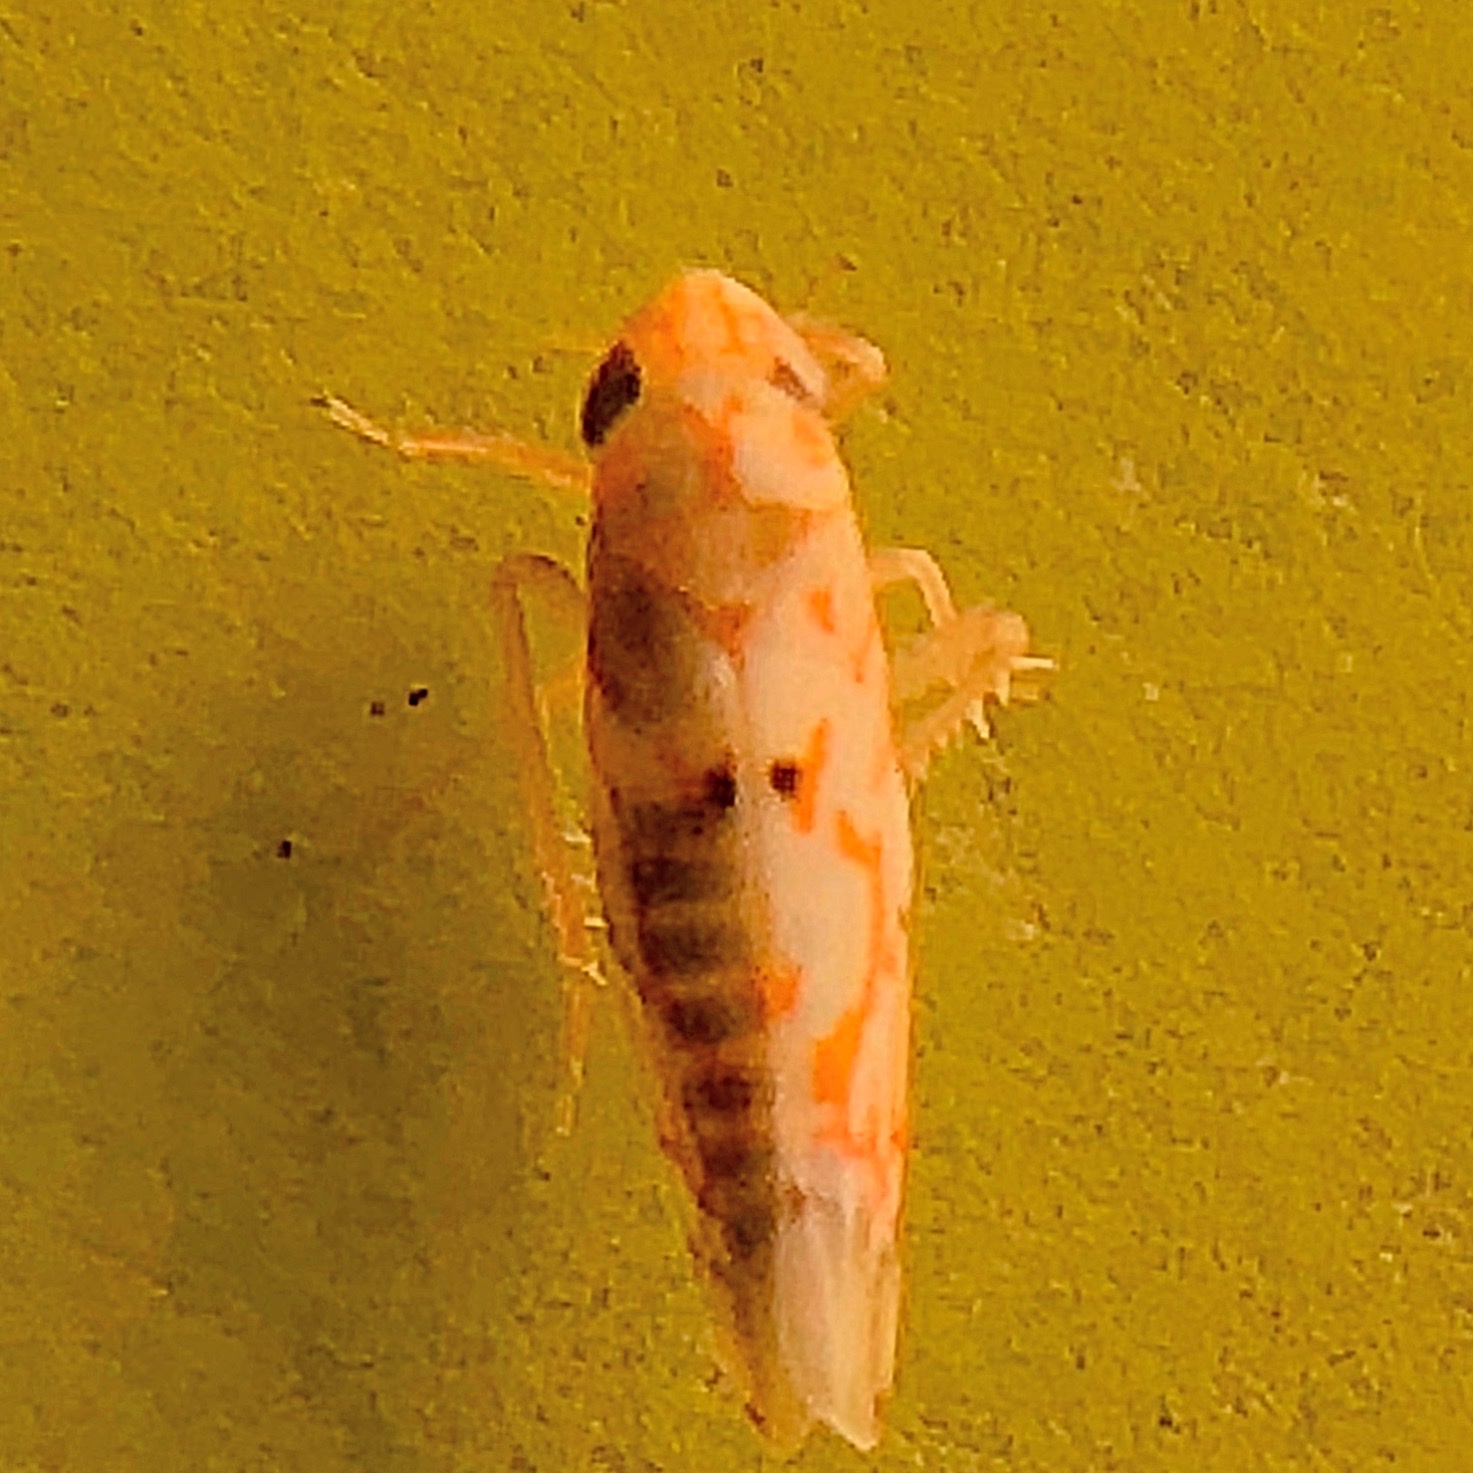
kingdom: Animalia
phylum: Arthropoda
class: Insecta
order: Hemiptera
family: Cicadellidae
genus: Erythroneura
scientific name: Erythroneura delicata
